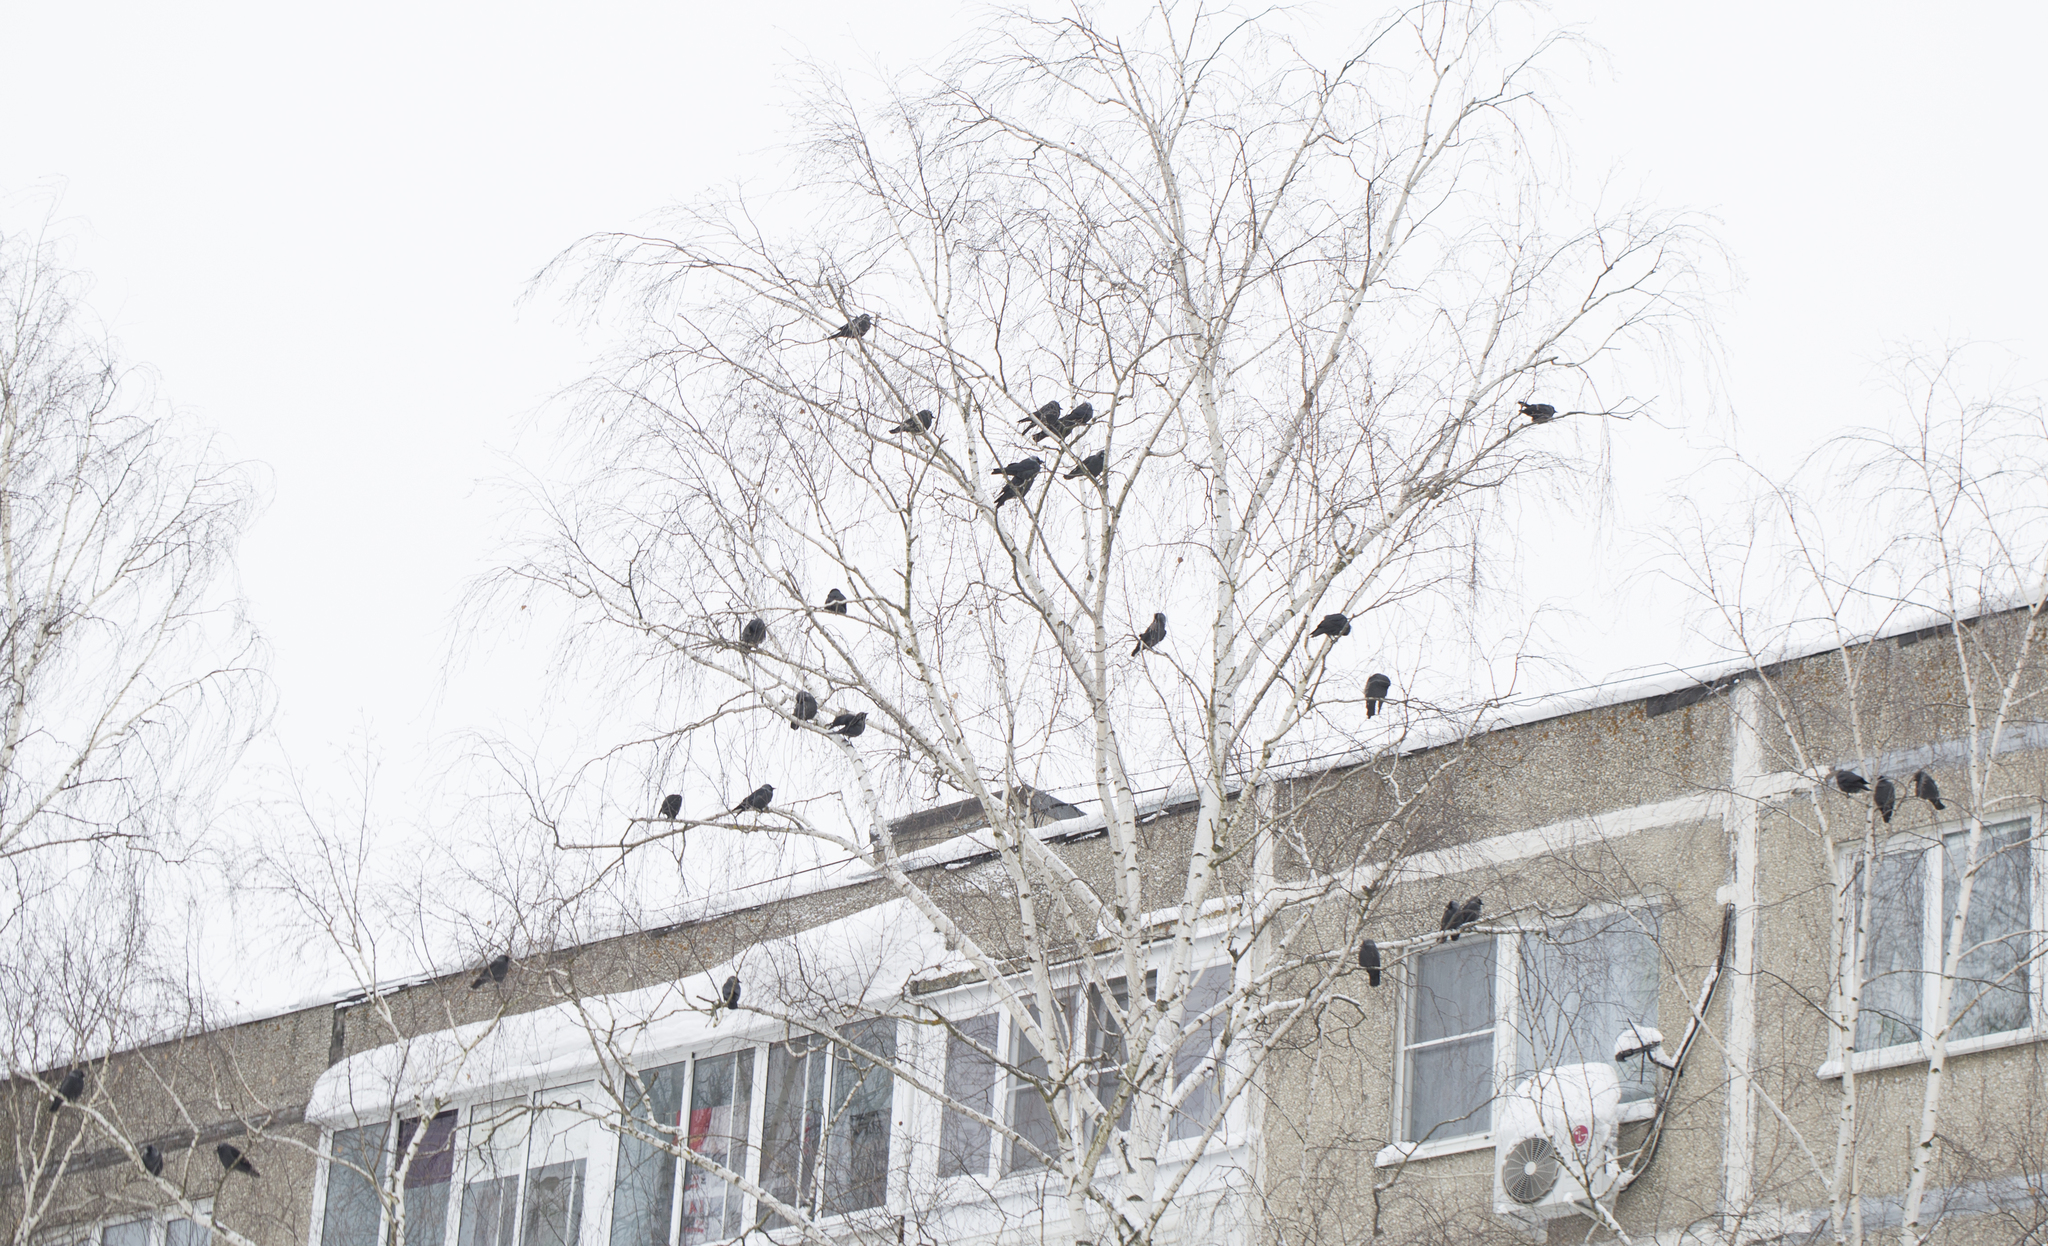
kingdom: Animalia
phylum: Chordata
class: Aves
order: Passeriformes
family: Corvidae
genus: Coloeus
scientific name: Coloeus monedula
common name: Western jackdaw
